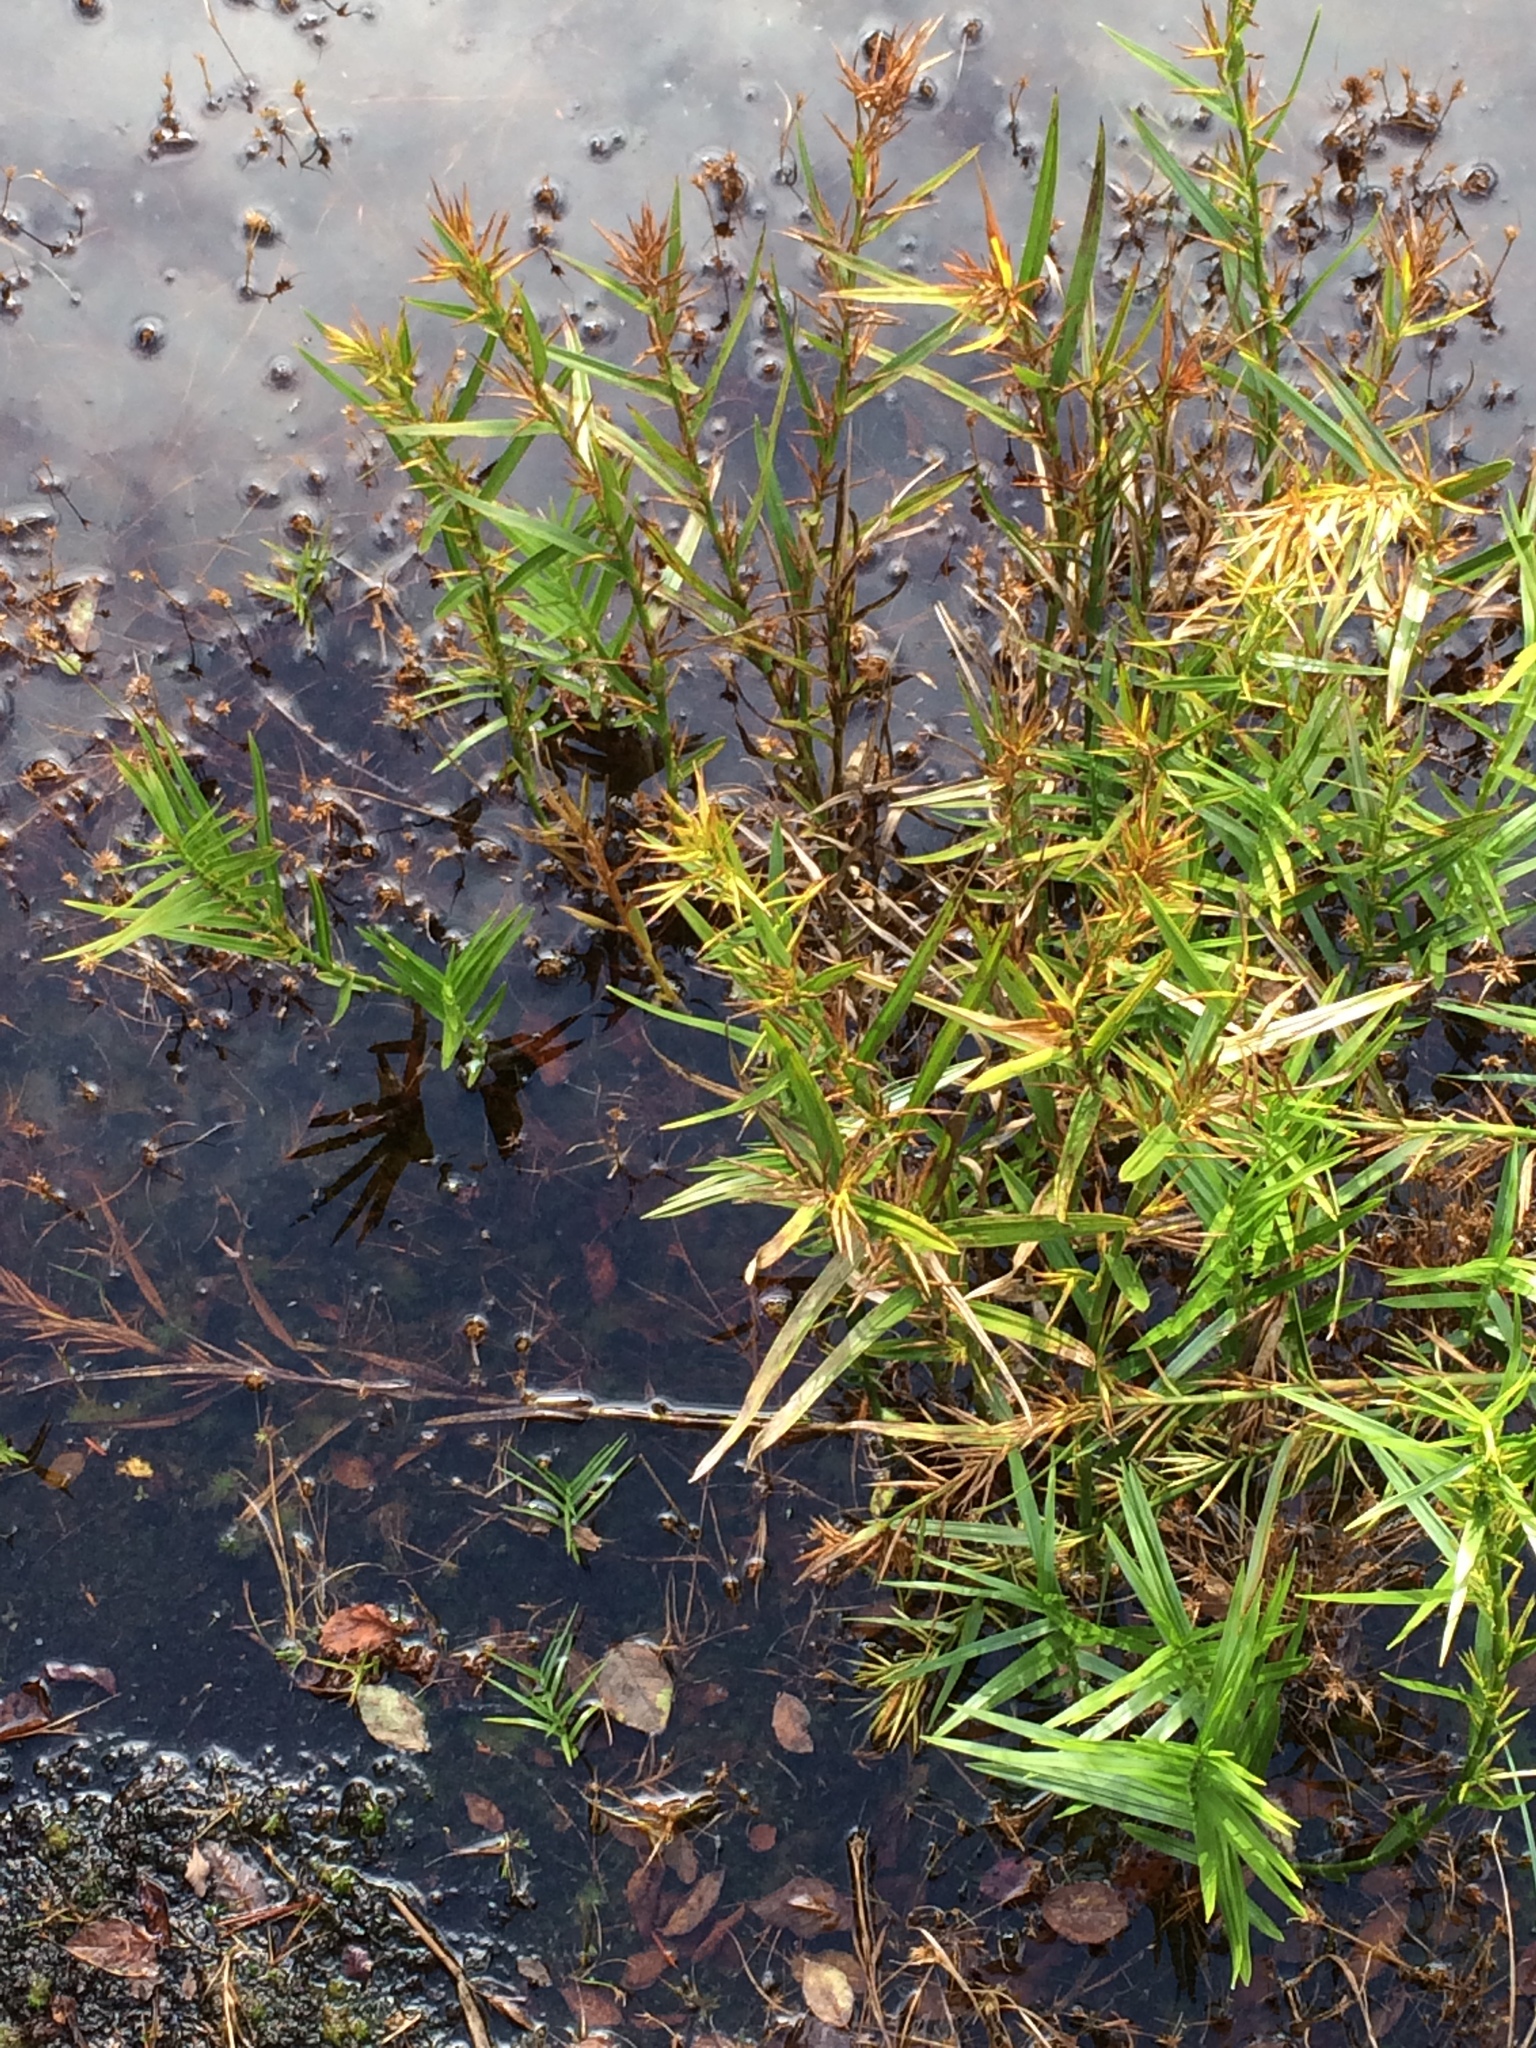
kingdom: Plantae
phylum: Tracheophyta
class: Liliopsida
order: Poales
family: Cyperaceae
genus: Dulichium
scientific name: Dulichium arundinaceum
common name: Three-way sedge
